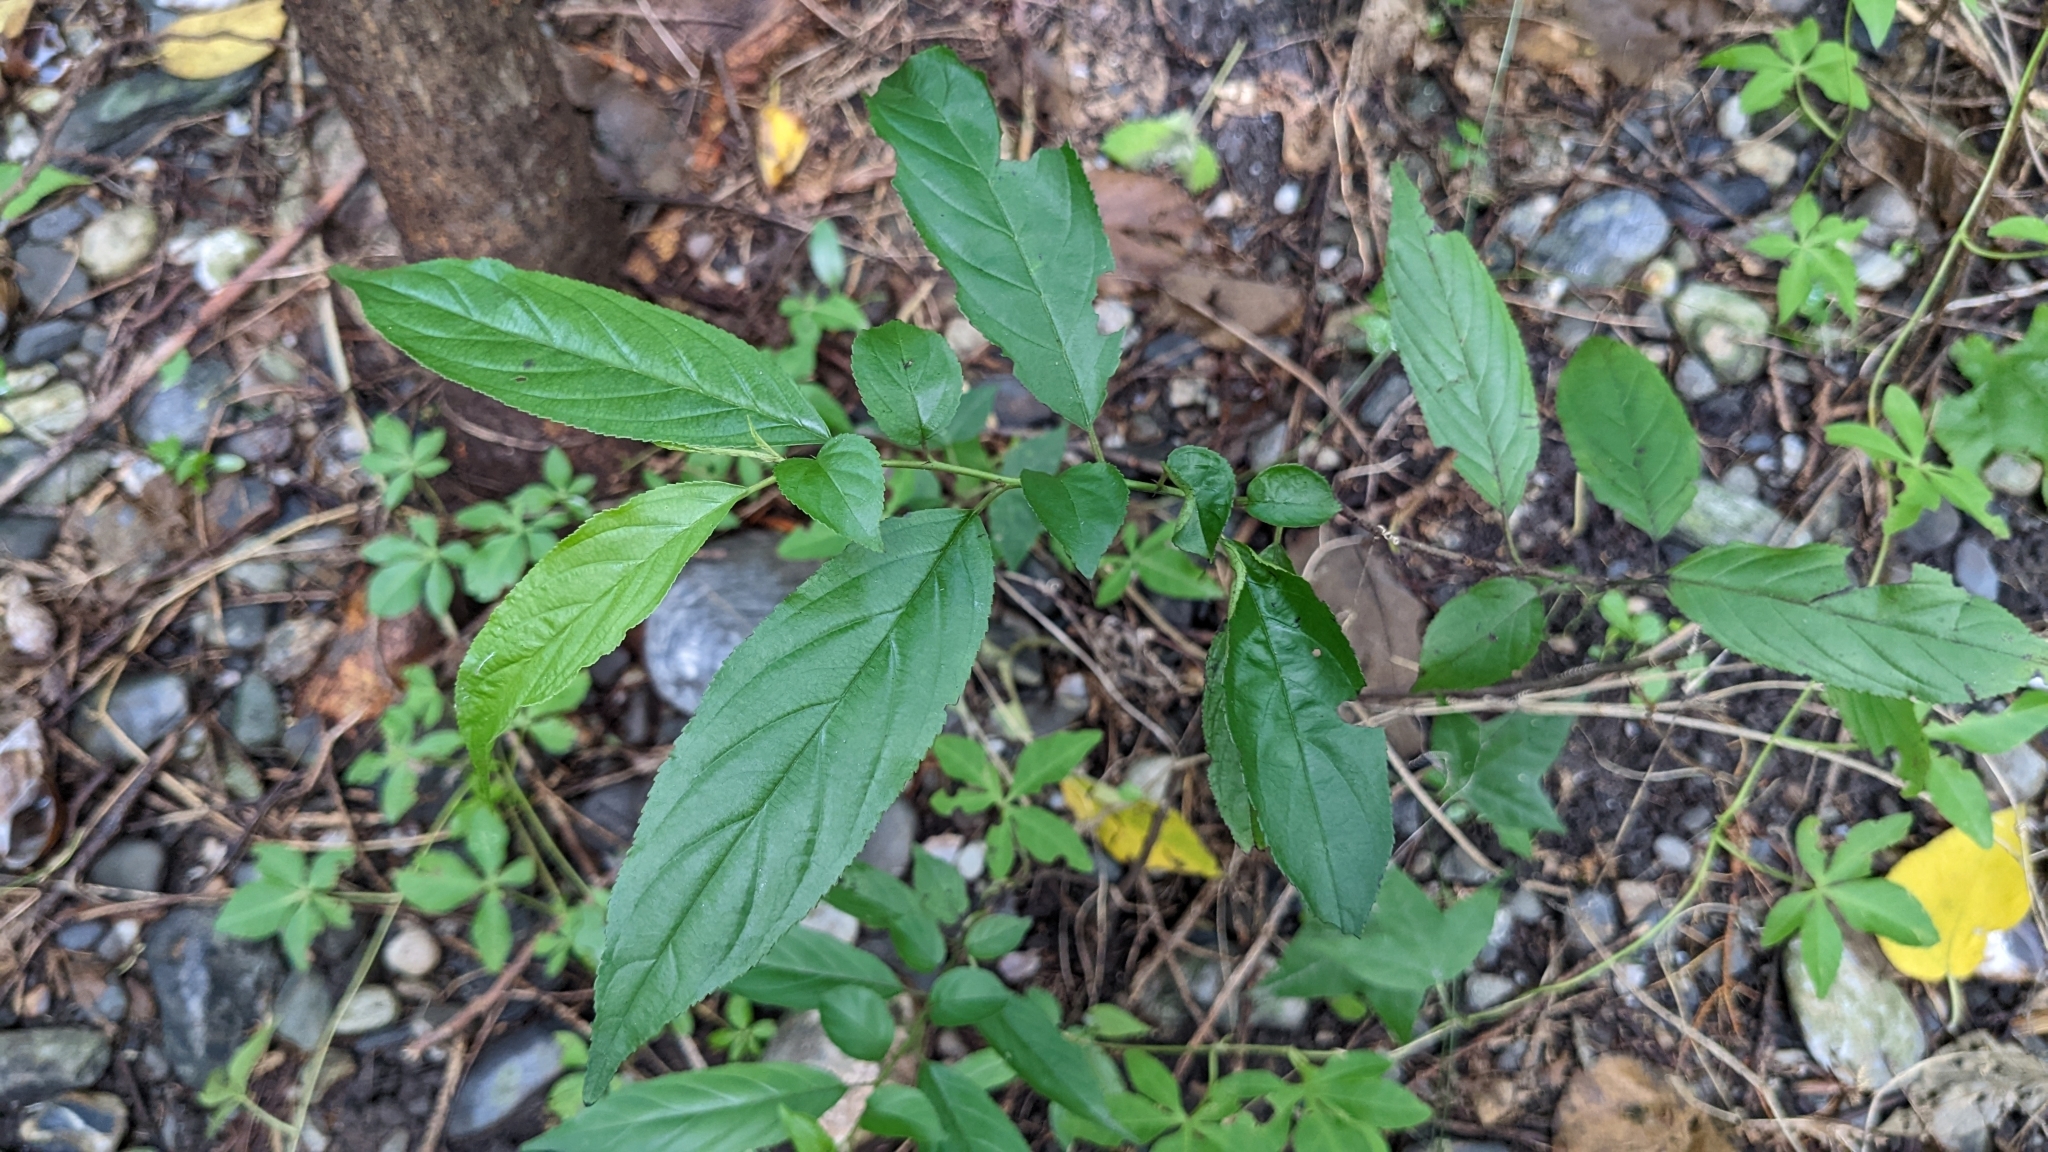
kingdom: Plantae
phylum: Tracheophyta
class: Magnoliopsida
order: Rosales
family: Rhamnaceae
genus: Rhamnus
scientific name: Rhamnus formosana
